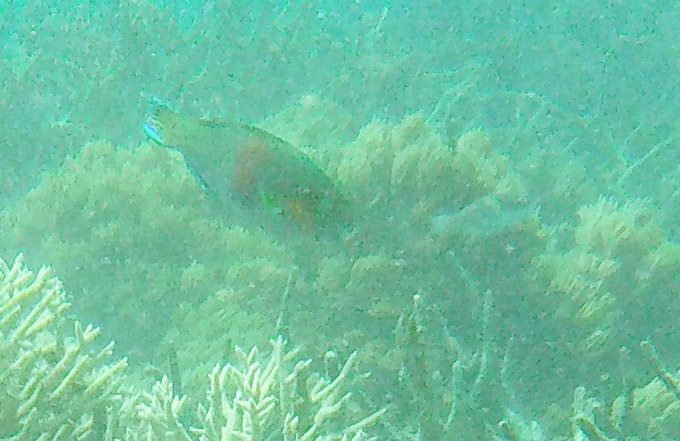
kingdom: Animalia
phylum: Chordata
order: Perciformes
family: Scaridae
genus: Scarus
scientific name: Scarus rivulatus
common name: Surf parrotfish
